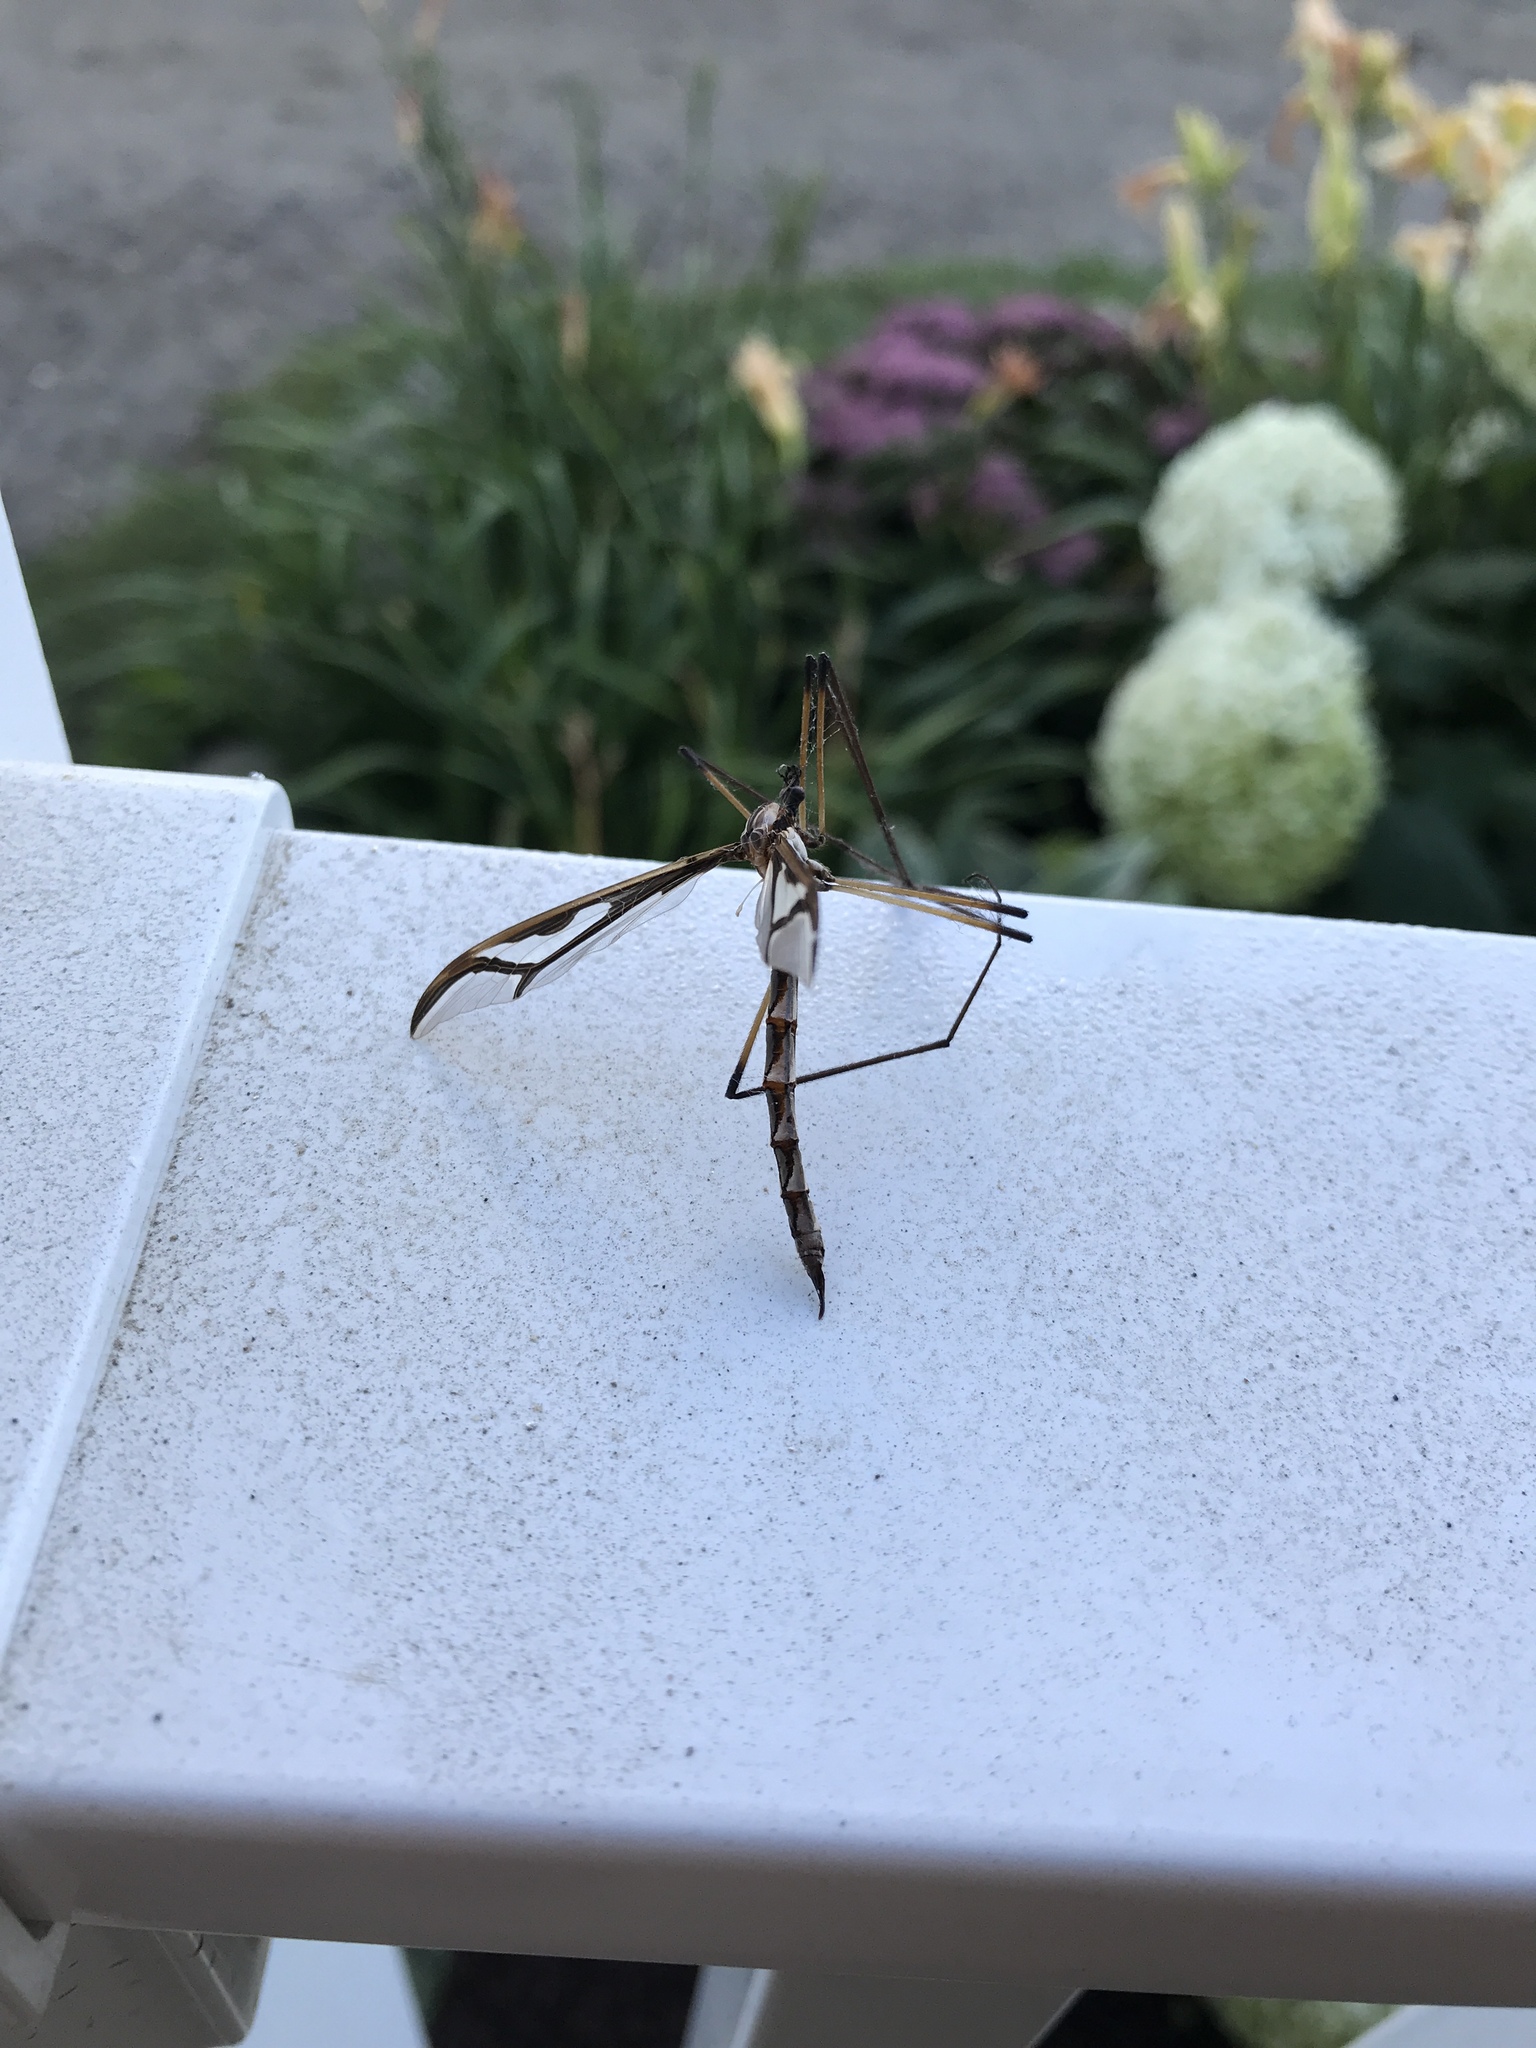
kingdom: Animalia
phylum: Arthropoda
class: Insecta
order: Diptera
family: Pediciidae
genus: Pedicia
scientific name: Pedicia albivitta
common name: Giant eastern crane fly
